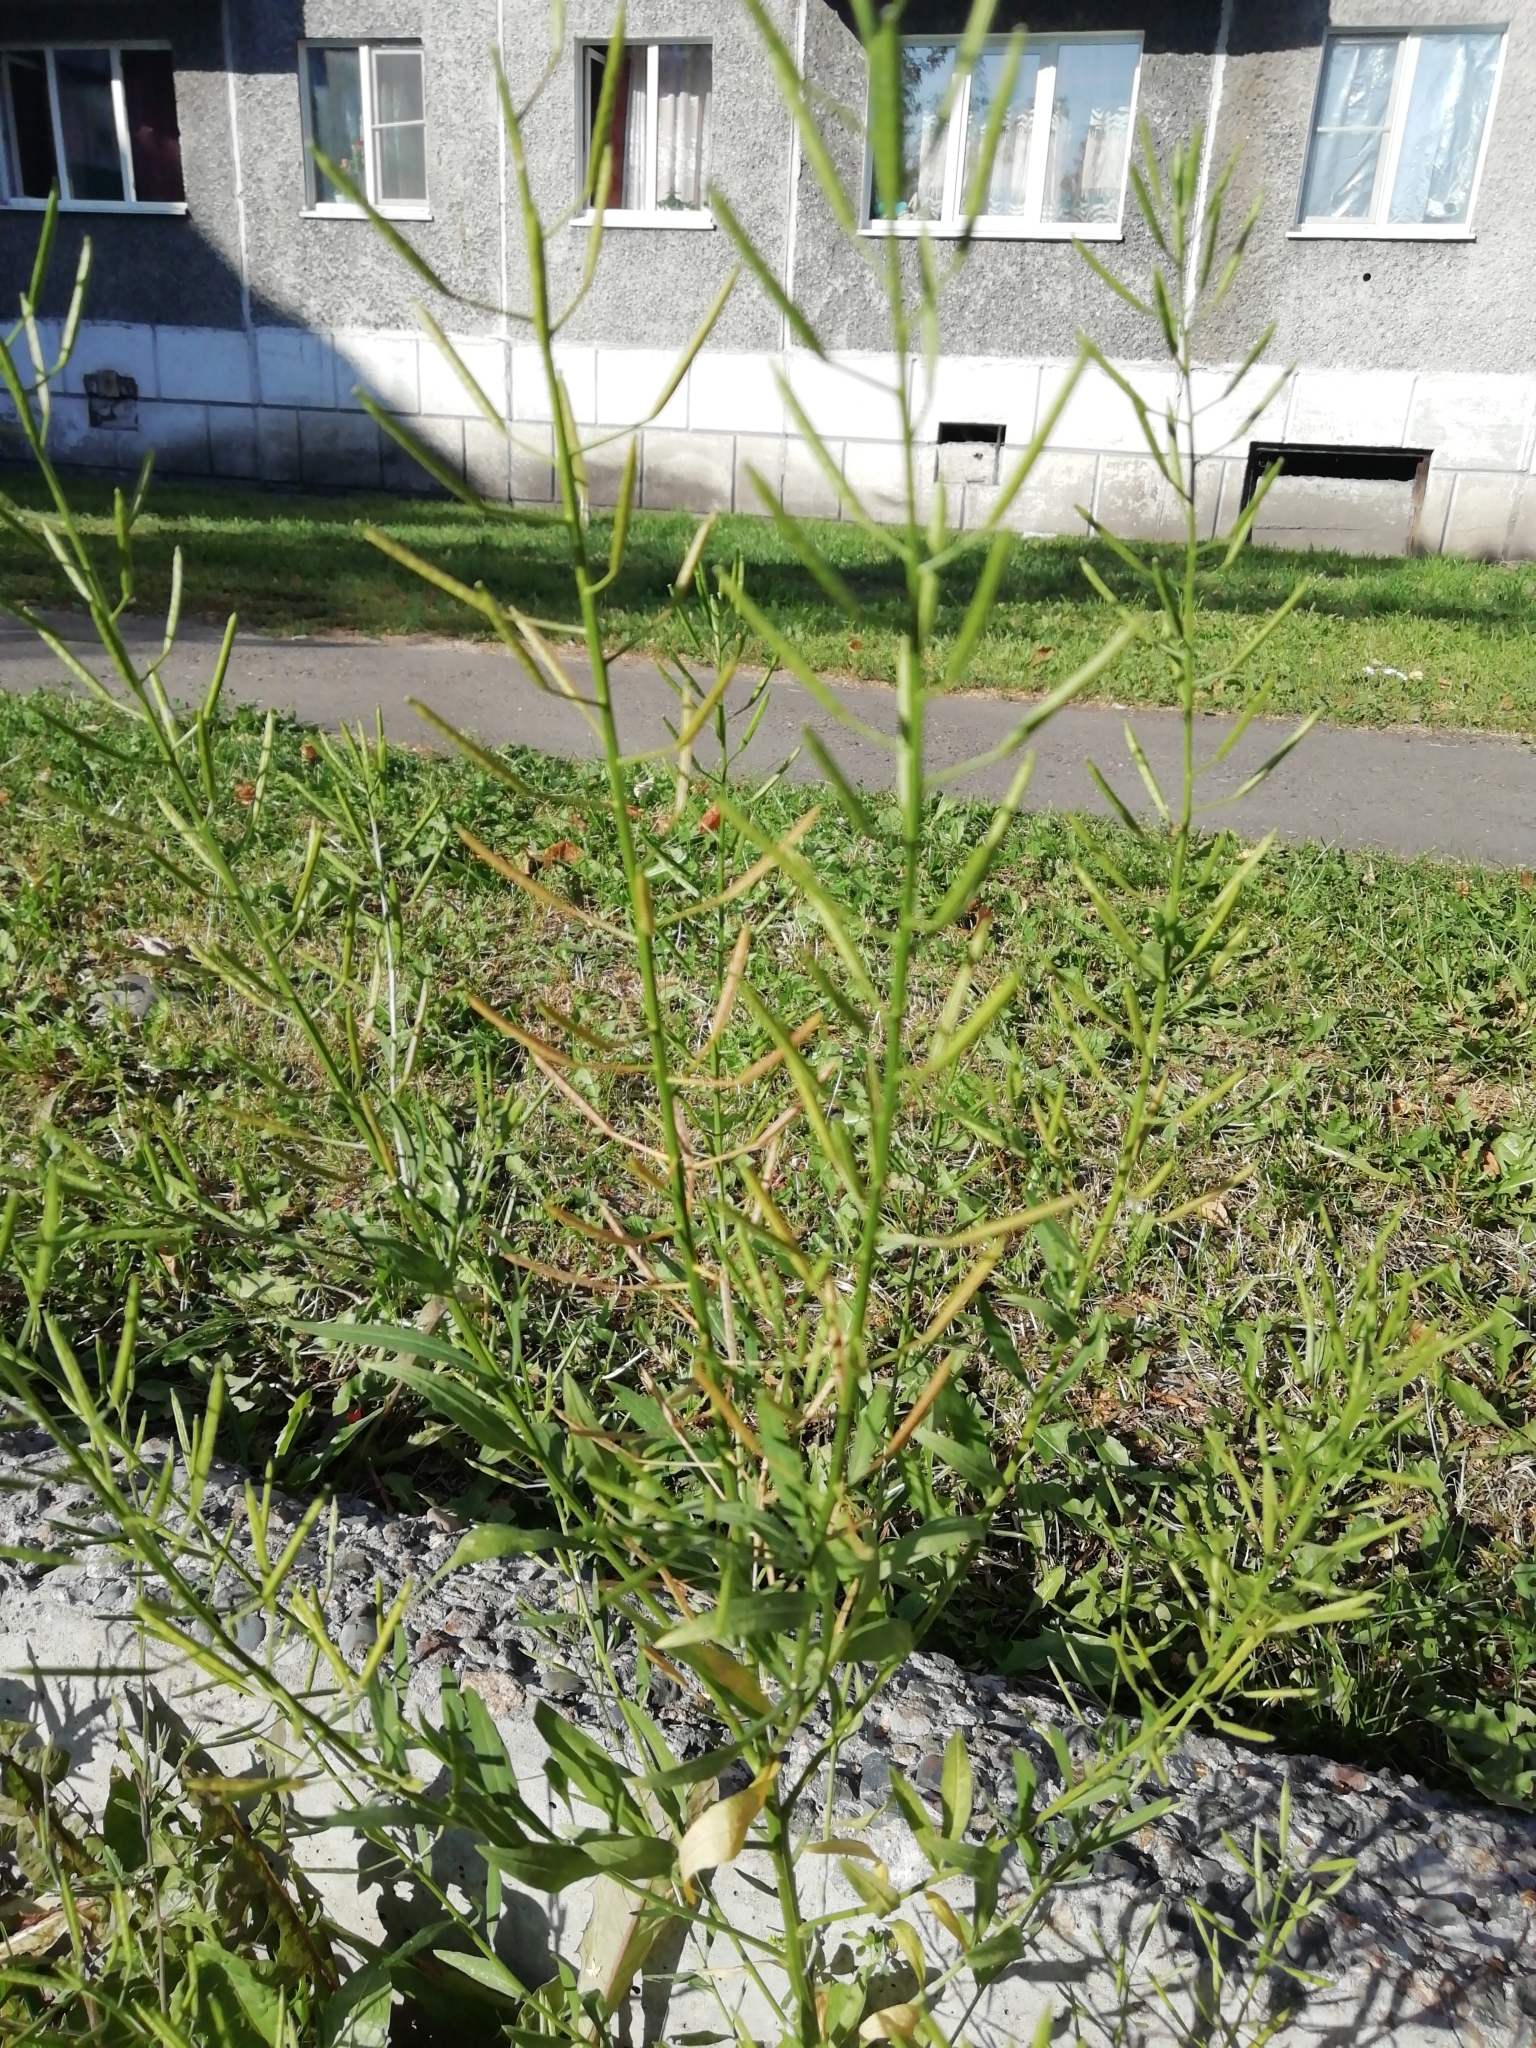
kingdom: Plantae
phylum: Tracheophyta
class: Magnoliopsida
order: Brassicales
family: Brassicaceae
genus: Erysimum
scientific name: Erysimum cheiranthoides
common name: Treacle mustard
